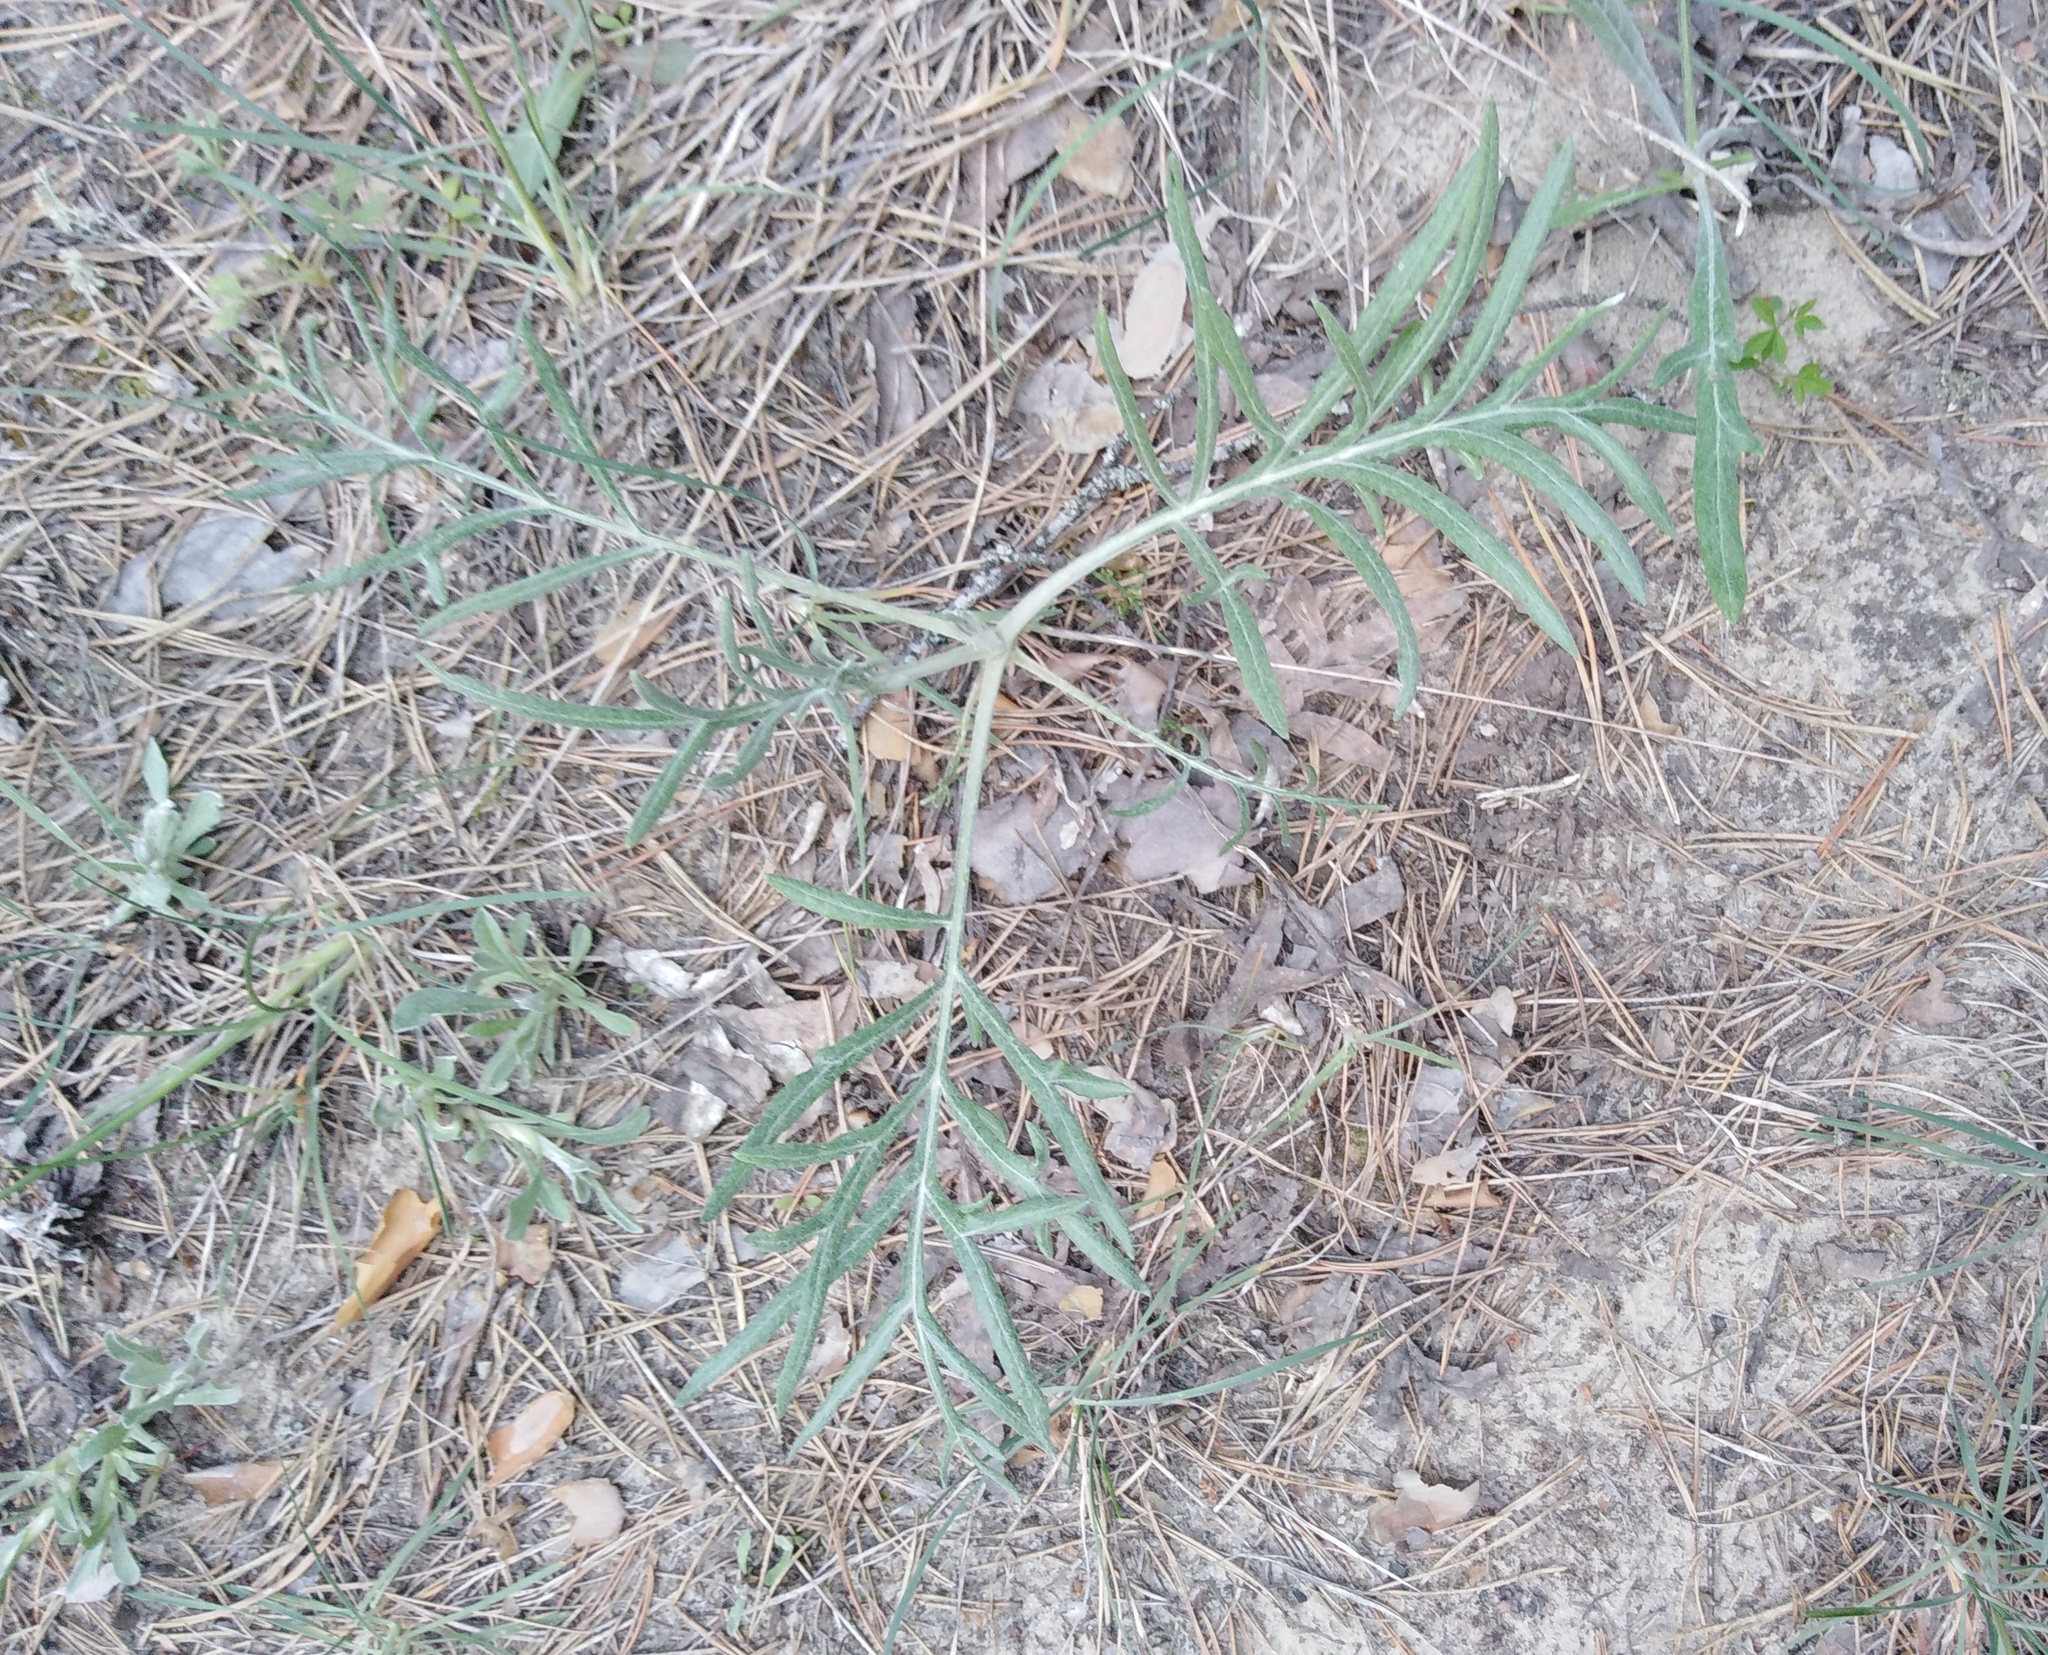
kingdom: Plantae
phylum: Tracheophyta
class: Magnoliopsida
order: Asterales
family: Asteraceae
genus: Jurinea
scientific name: Jurinea cyanoides
